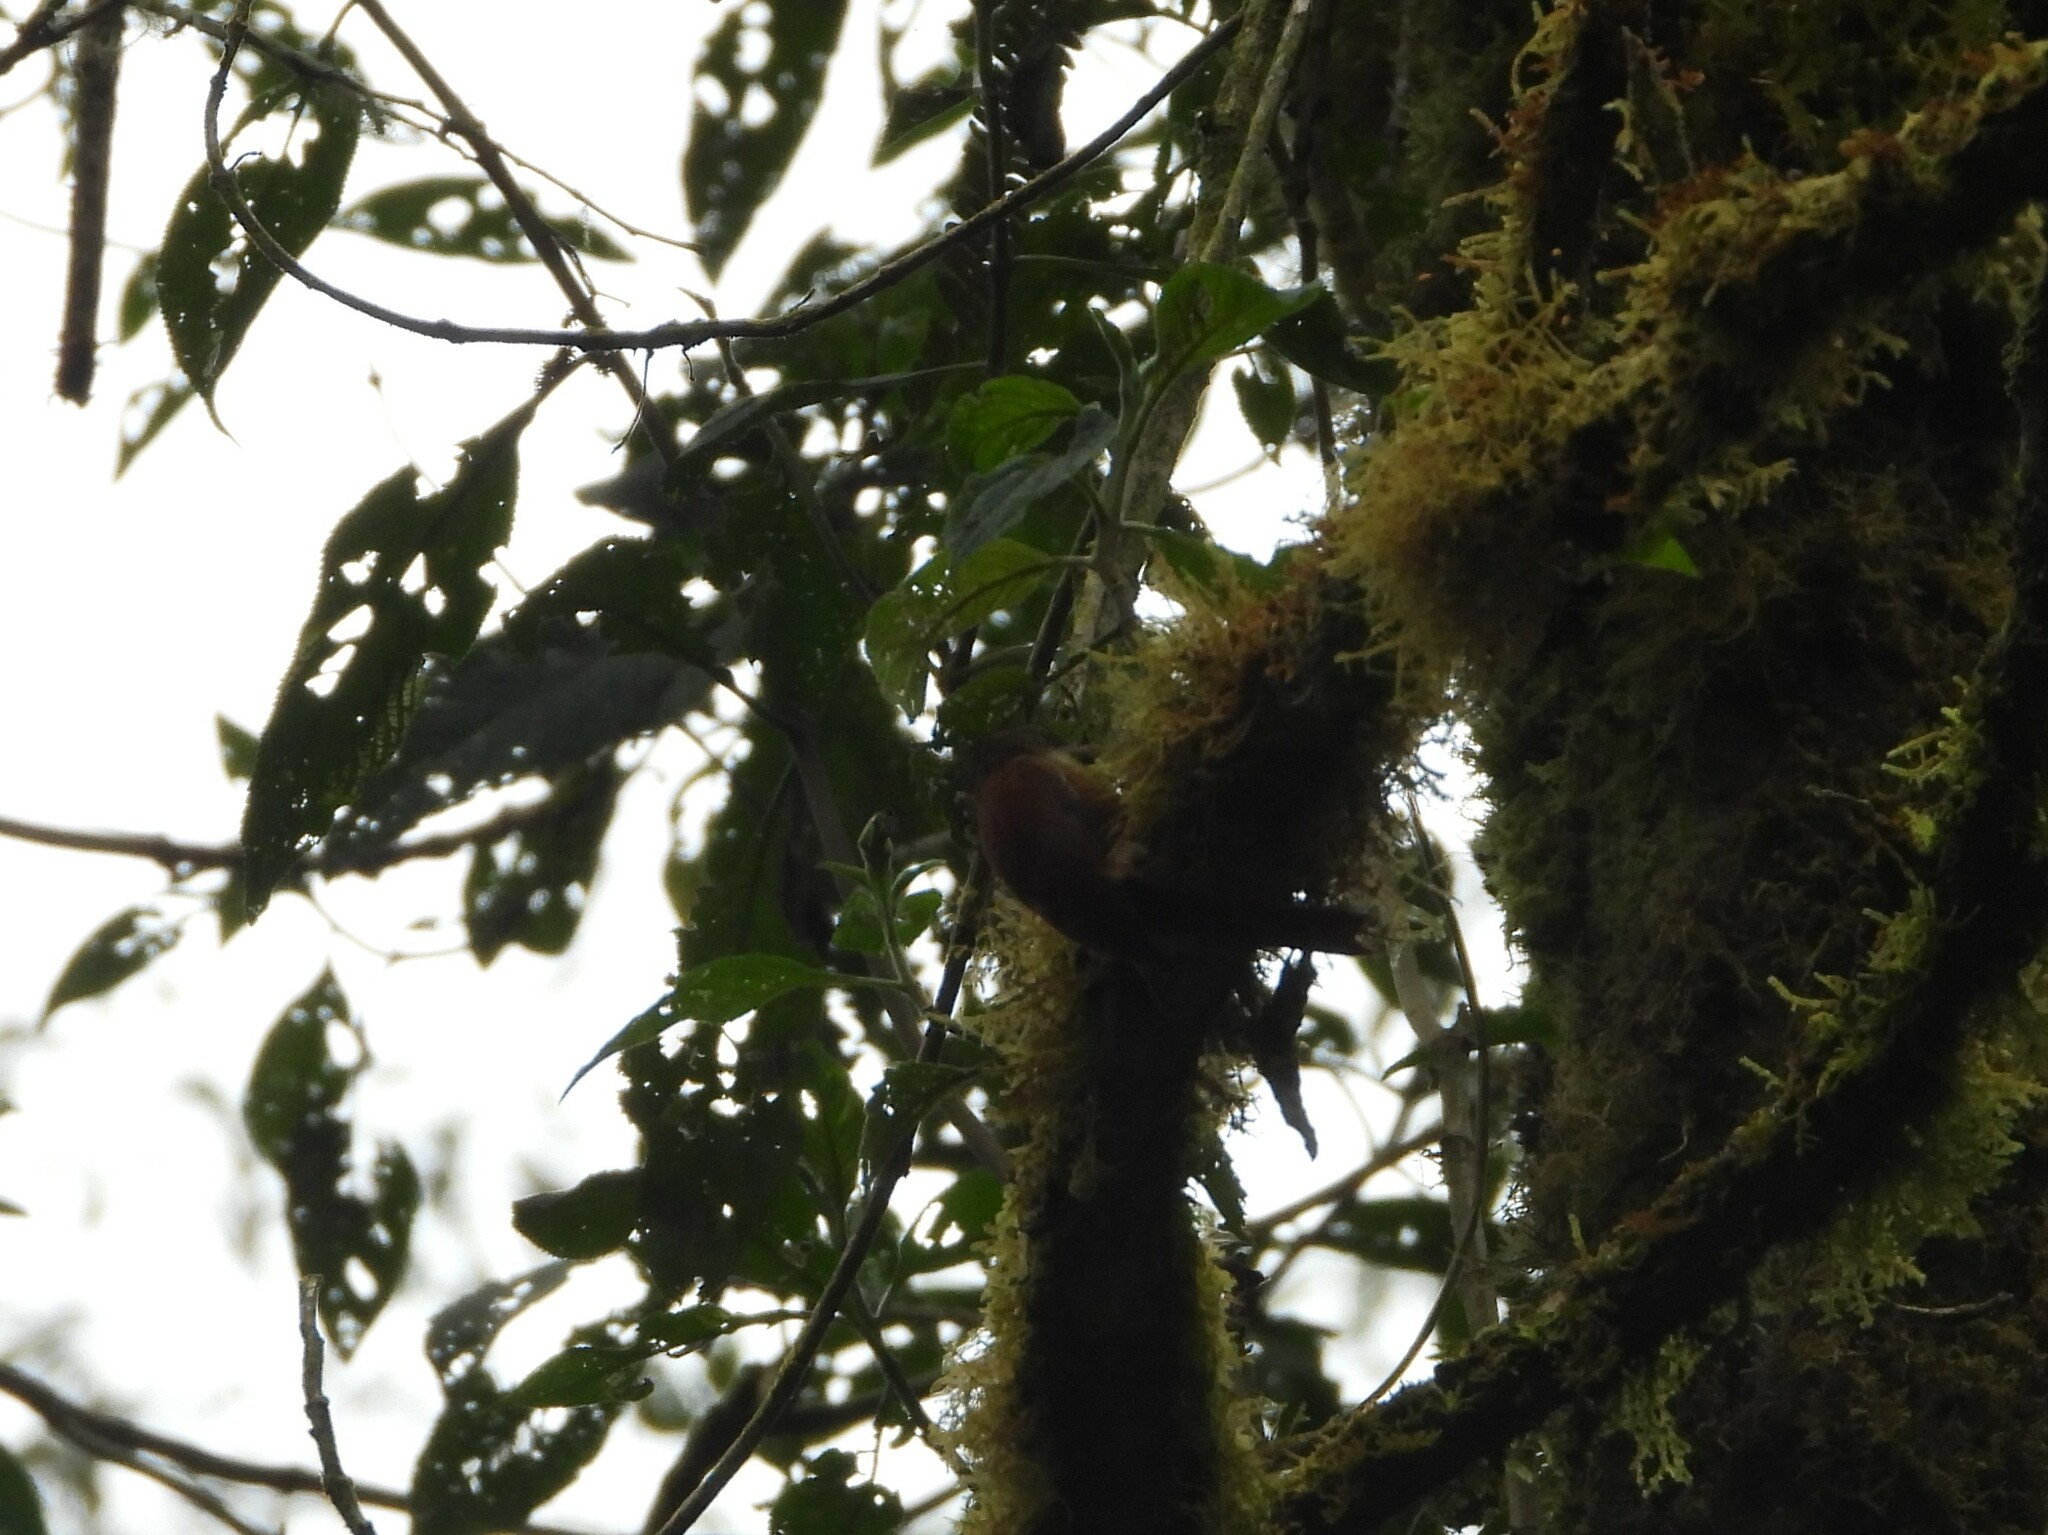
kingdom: Animalia
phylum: Chordata
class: Aves
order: Passeriformes
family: Furnariidae
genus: Margarornis
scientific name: Margarornis rubiginosus
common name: Ruddy treerunner
